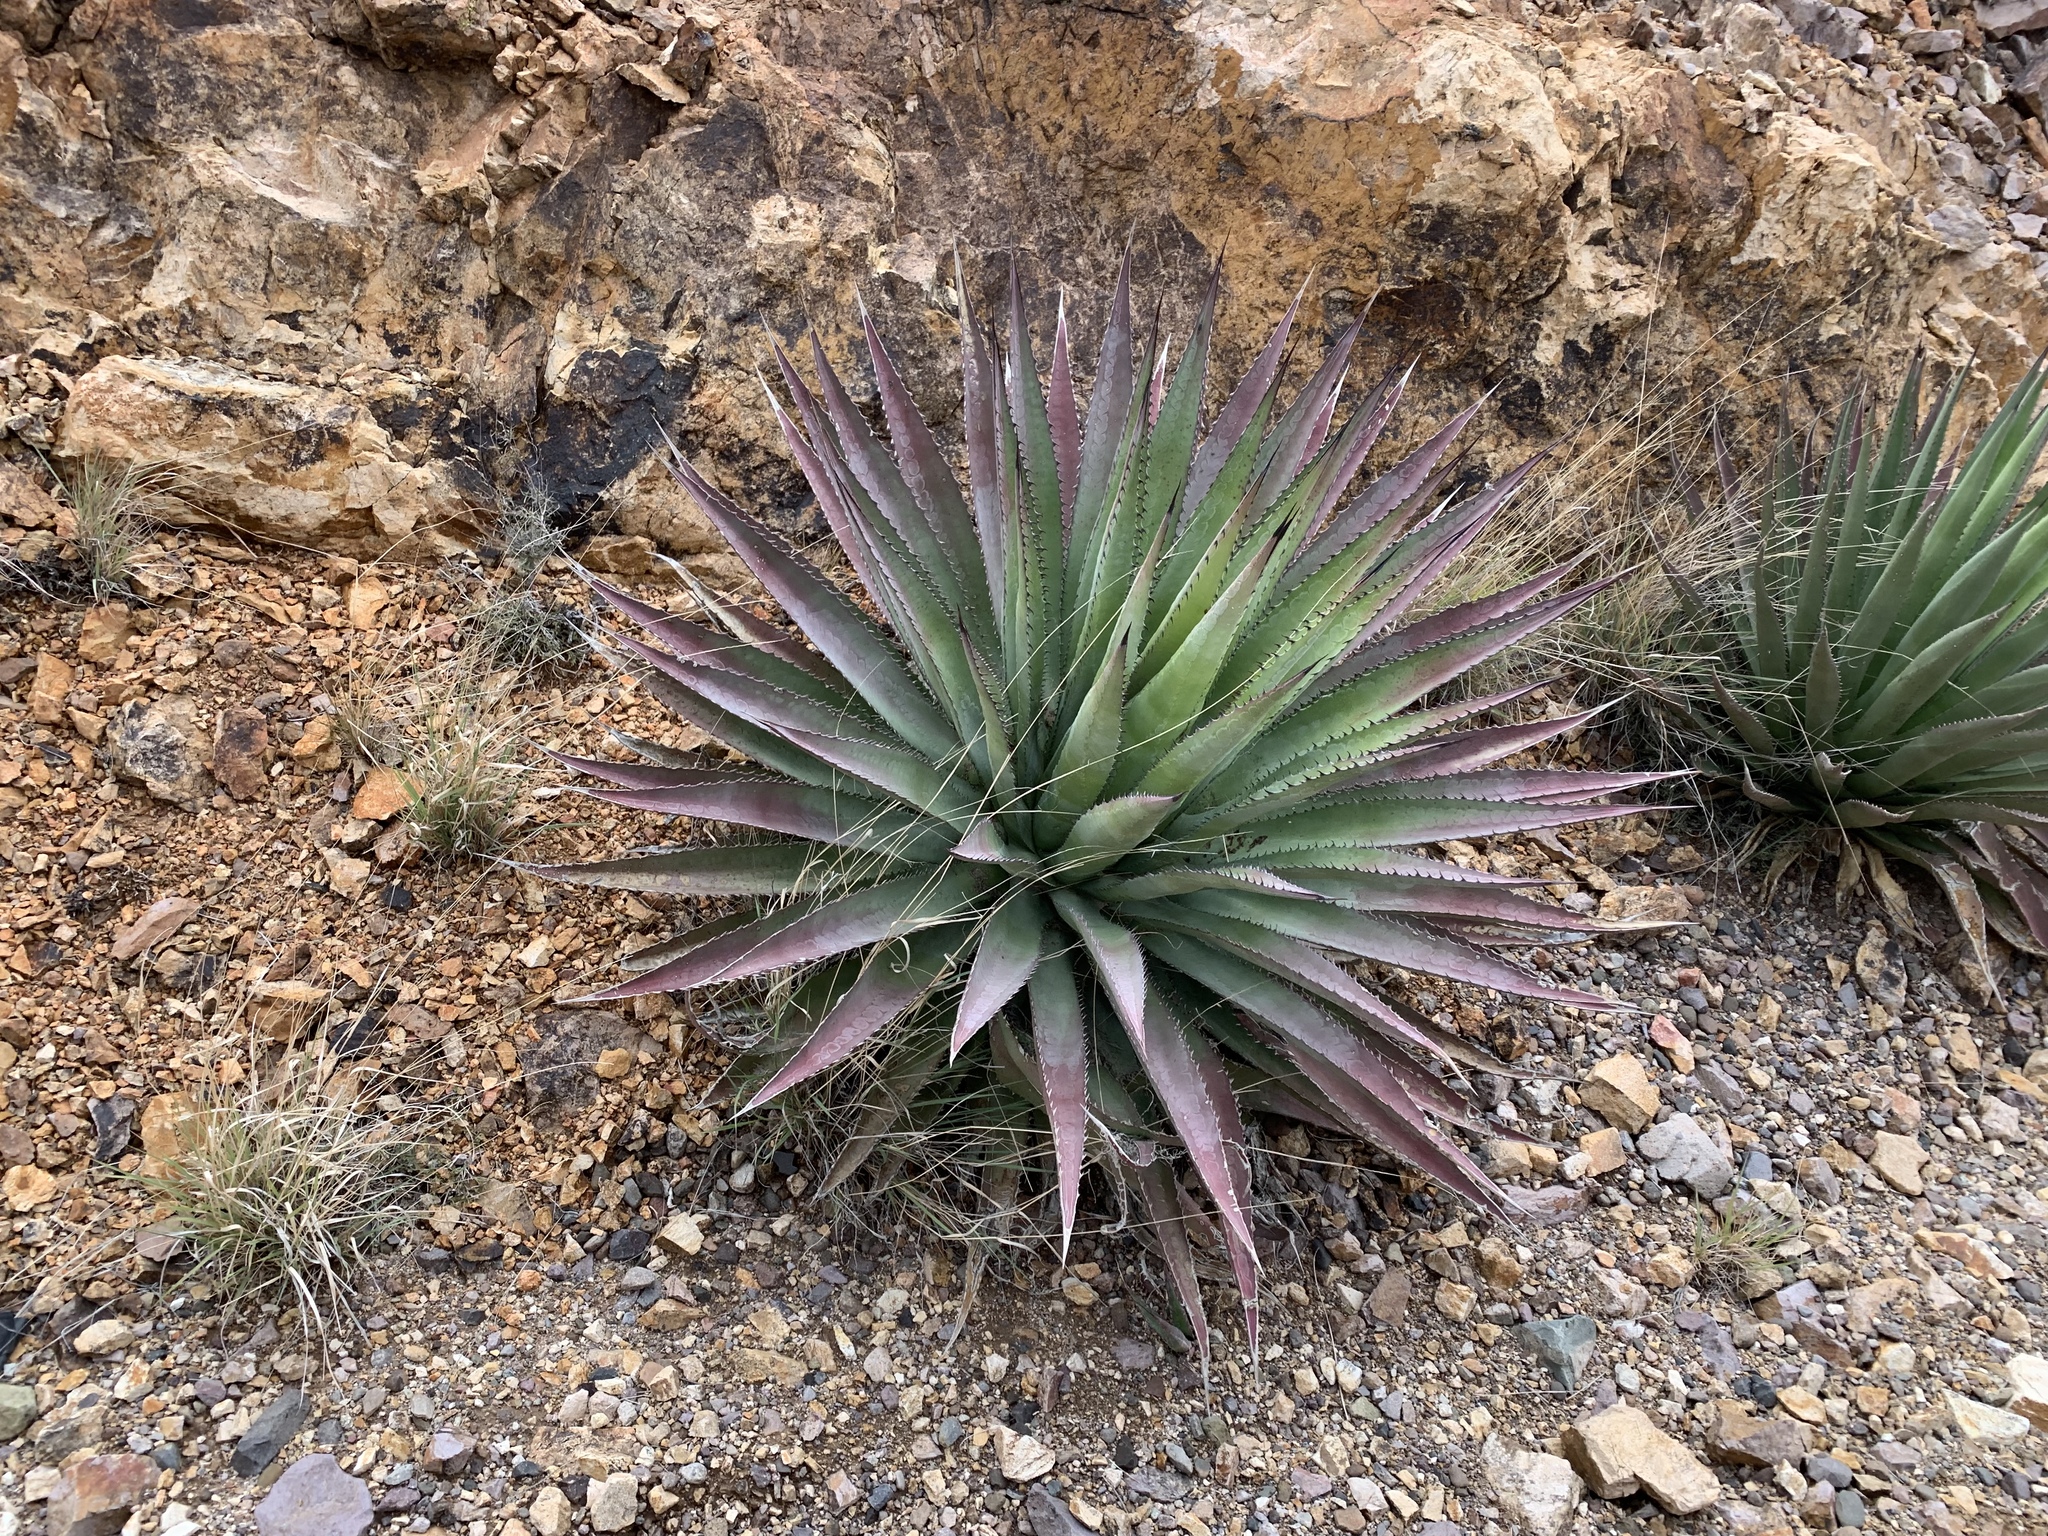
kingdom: Plantae
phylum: Tracheophyta
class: Liliopsida
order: Asparagales
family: Asparagaceae
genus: Agave
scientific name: Agave palmeri
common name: Palmer agave
